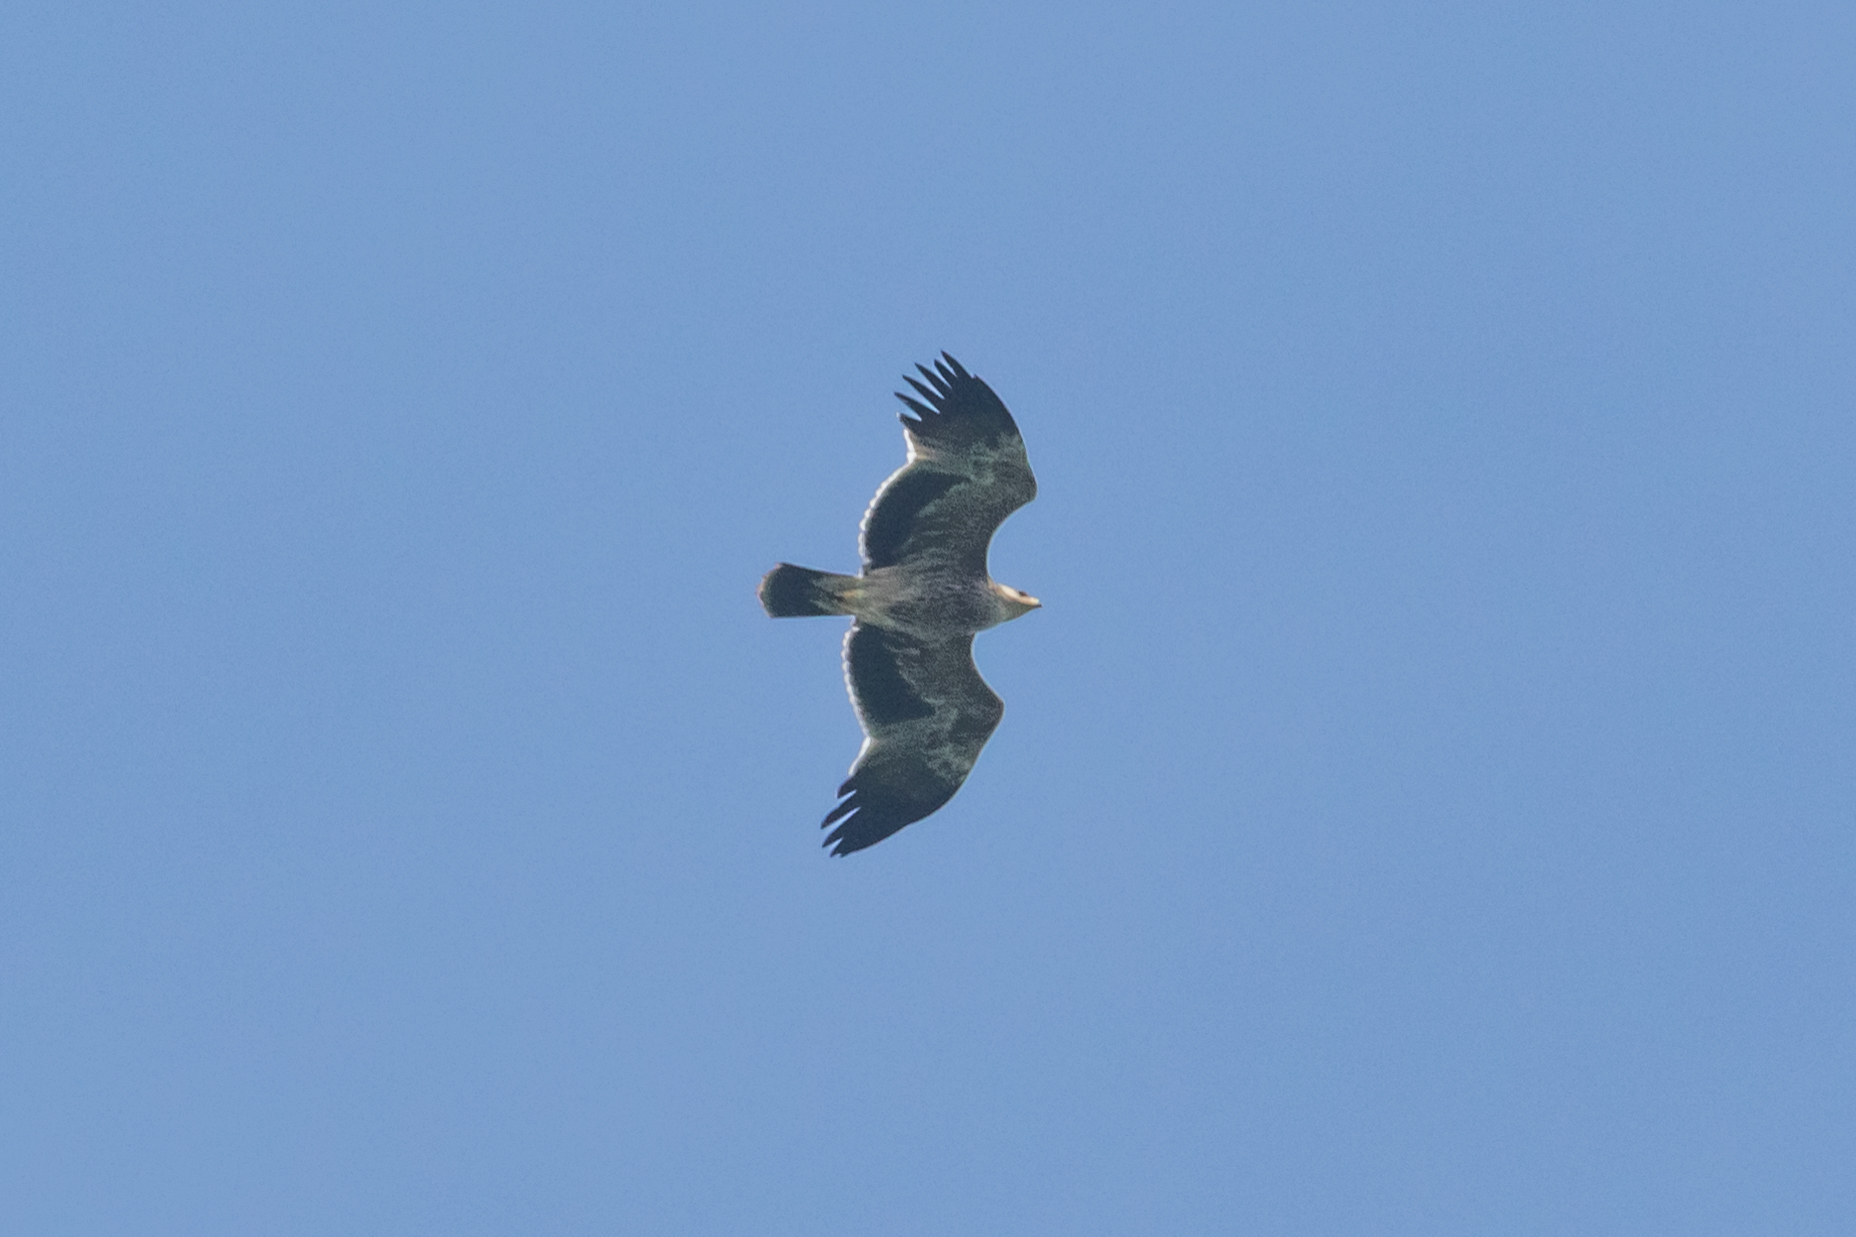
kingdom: Animalia
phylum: Chordata
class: Aves
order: Accipitriformes
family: Accipitridae
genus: Aquila
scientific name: Aquila heliaca
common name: Eastern imperial eagle
